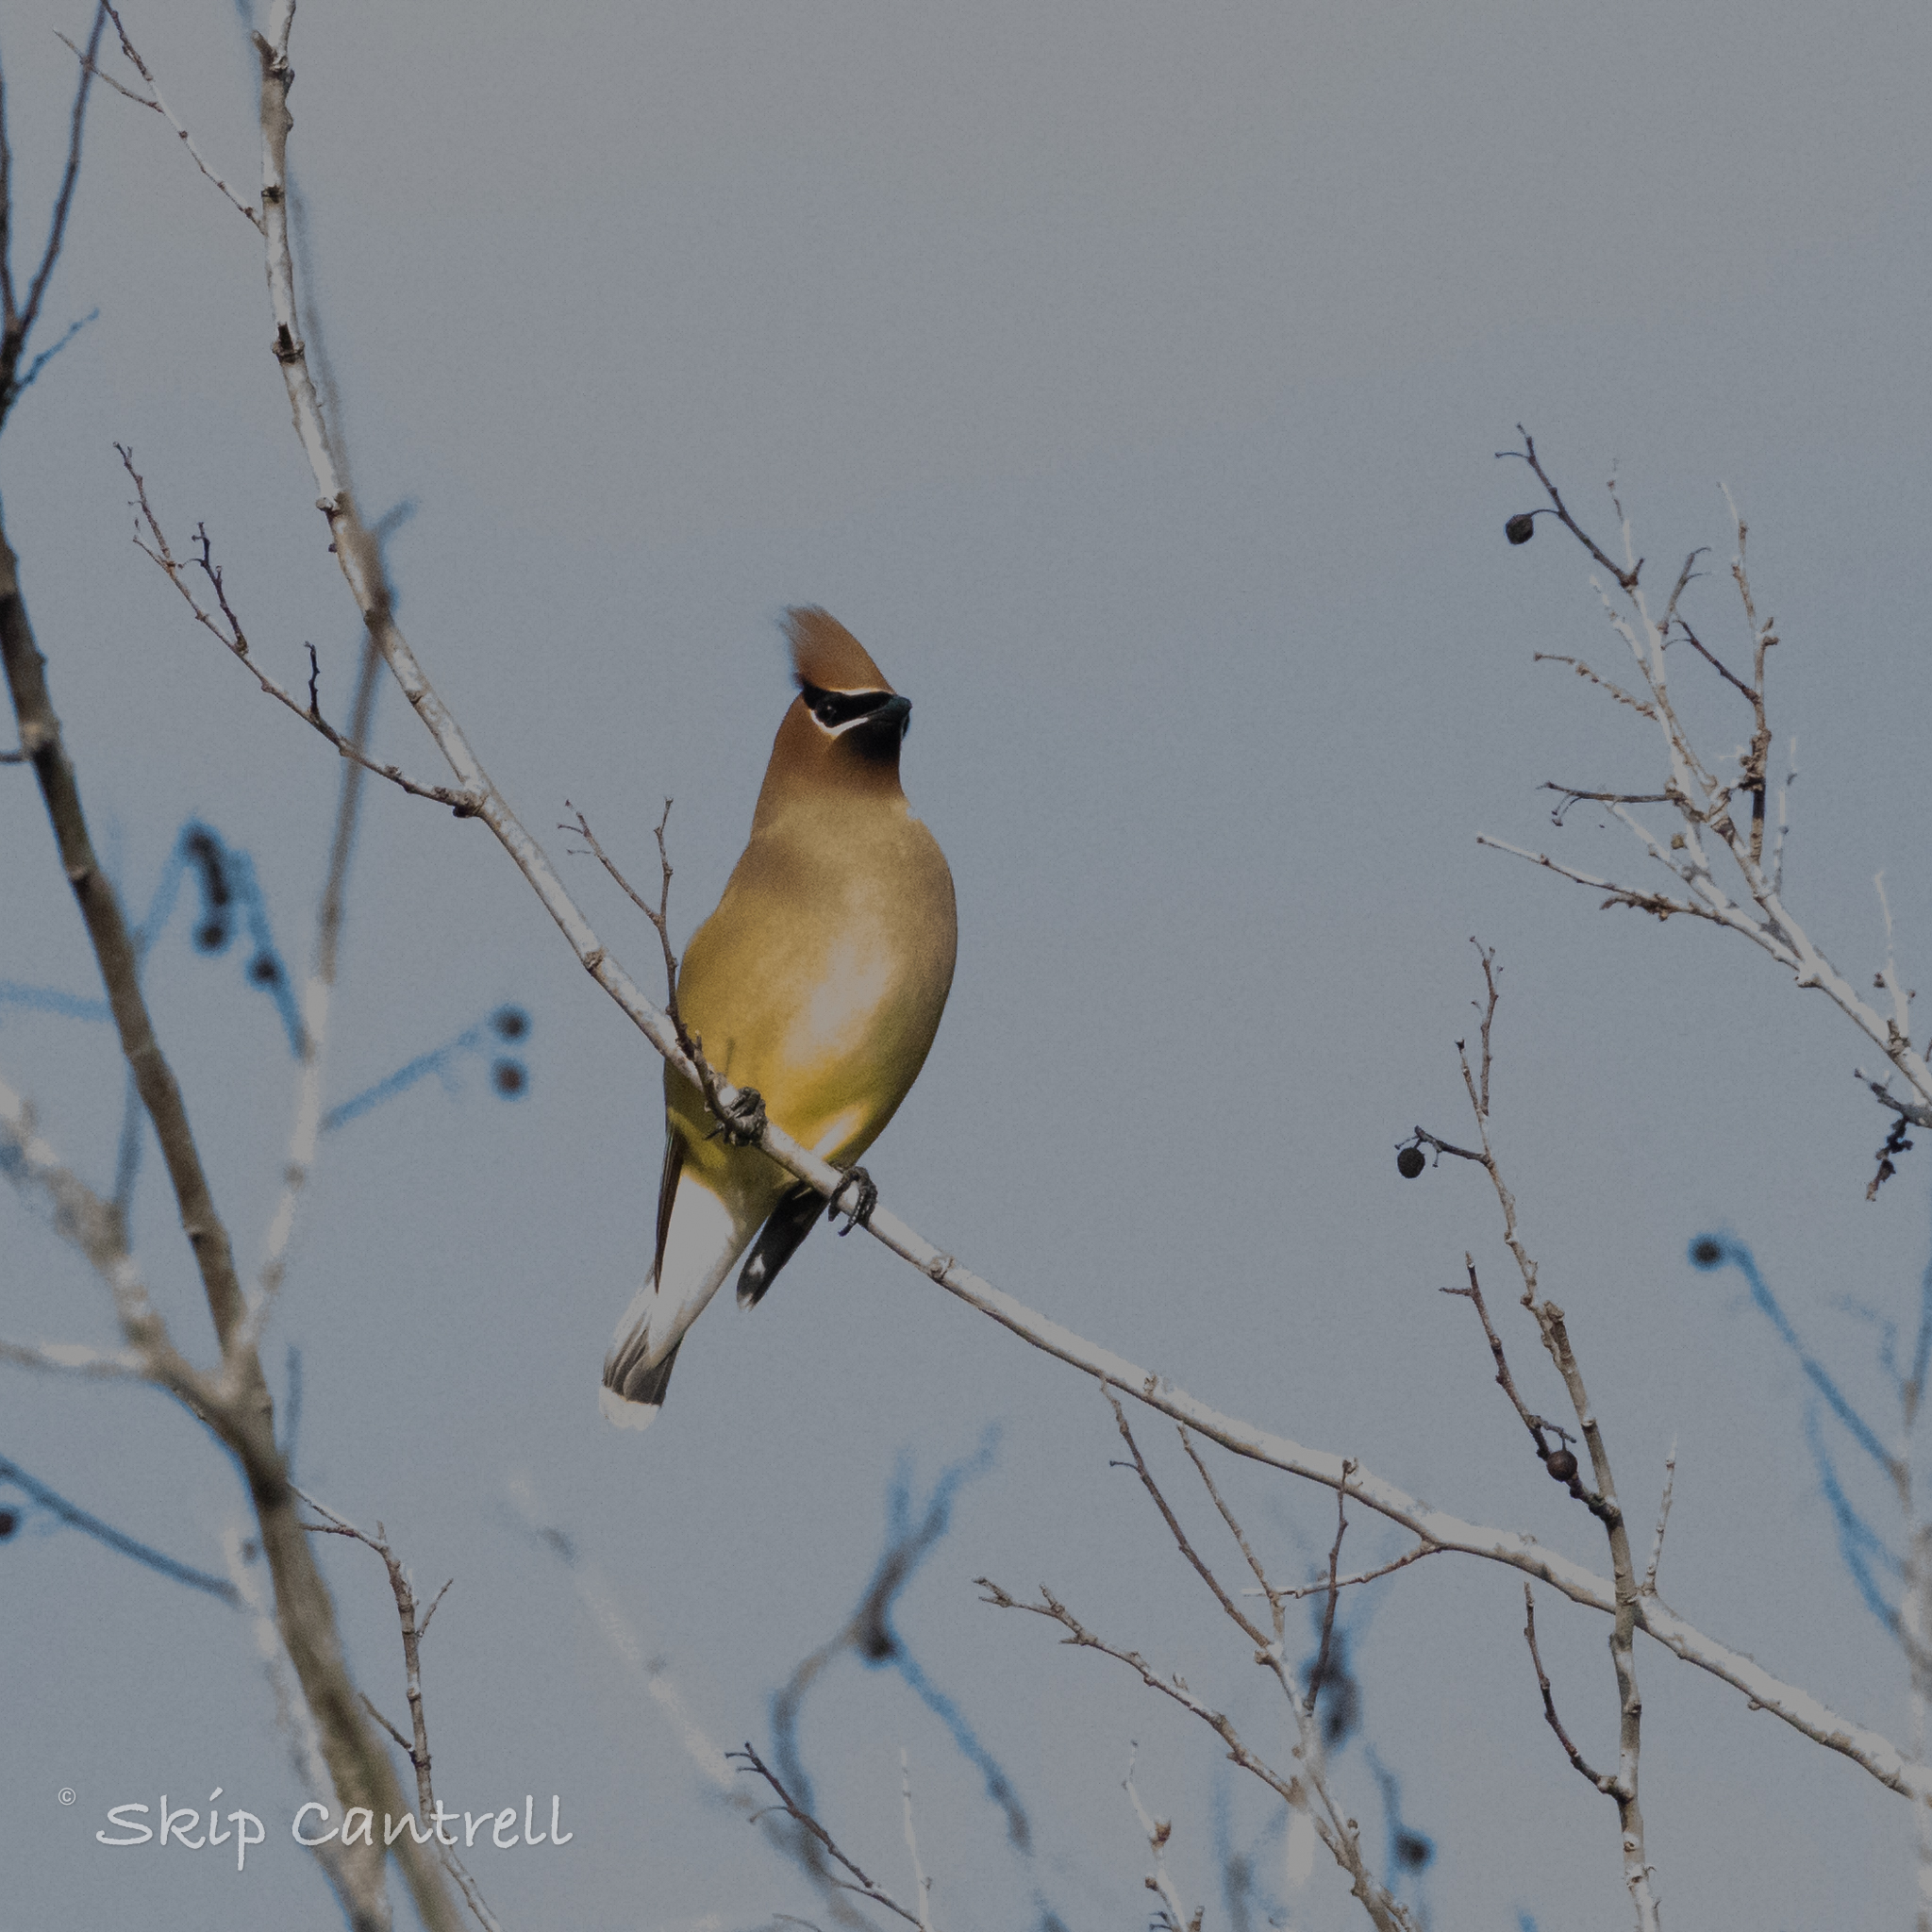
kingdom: Animalia
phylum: Chordata
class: Aves
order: Passeriformes
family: Bombycillidae
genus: Bombycilla
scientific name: Bombycilla cedrorum
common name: Cedar waxwing
